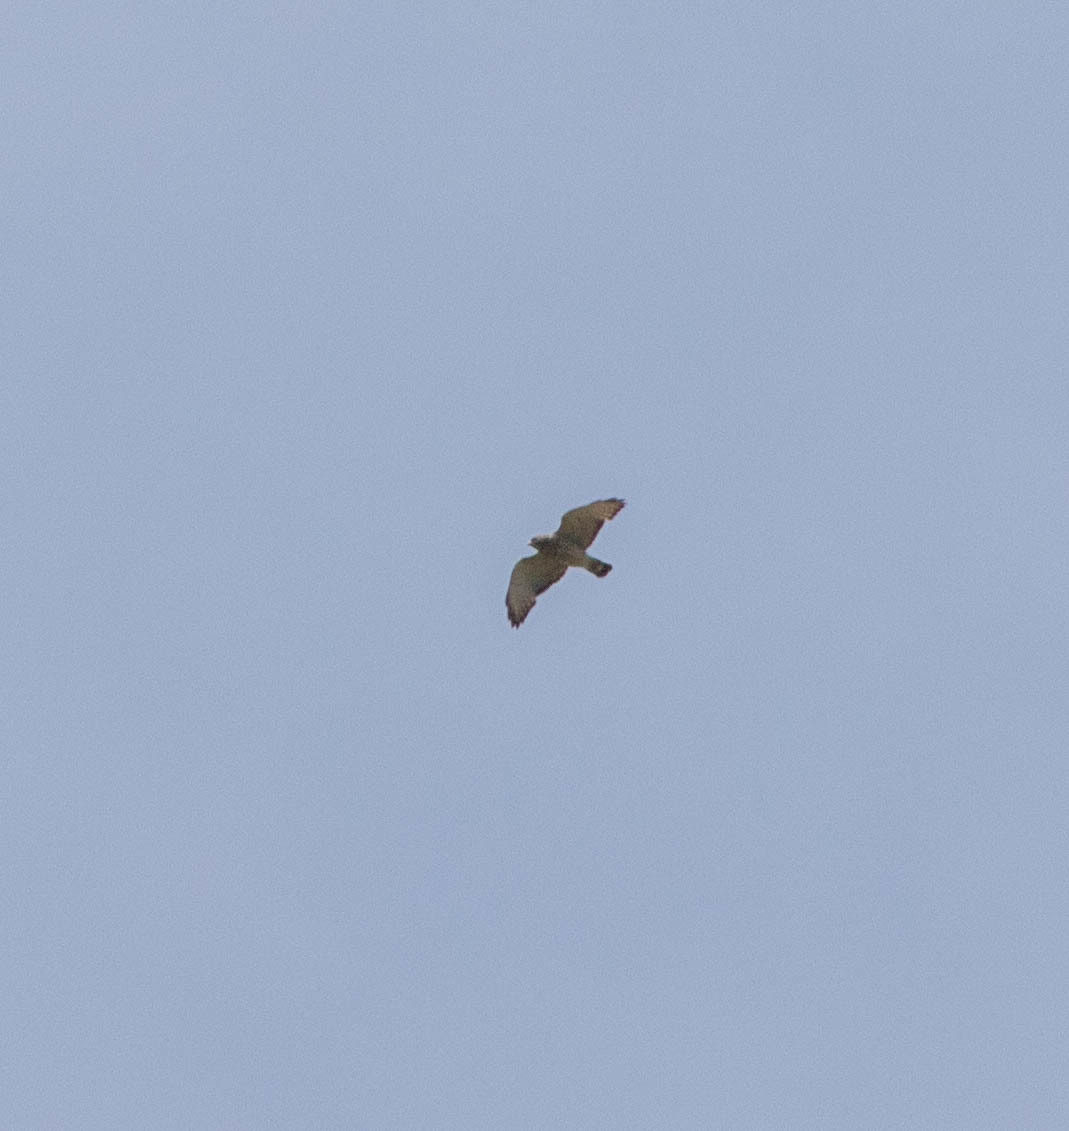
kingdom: Animalia
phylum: Chordata
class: Aves
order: Accipitriformes
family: Accipitridae
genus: Buteo
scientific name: Buteo platypterus
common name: Broad-winged hawk
